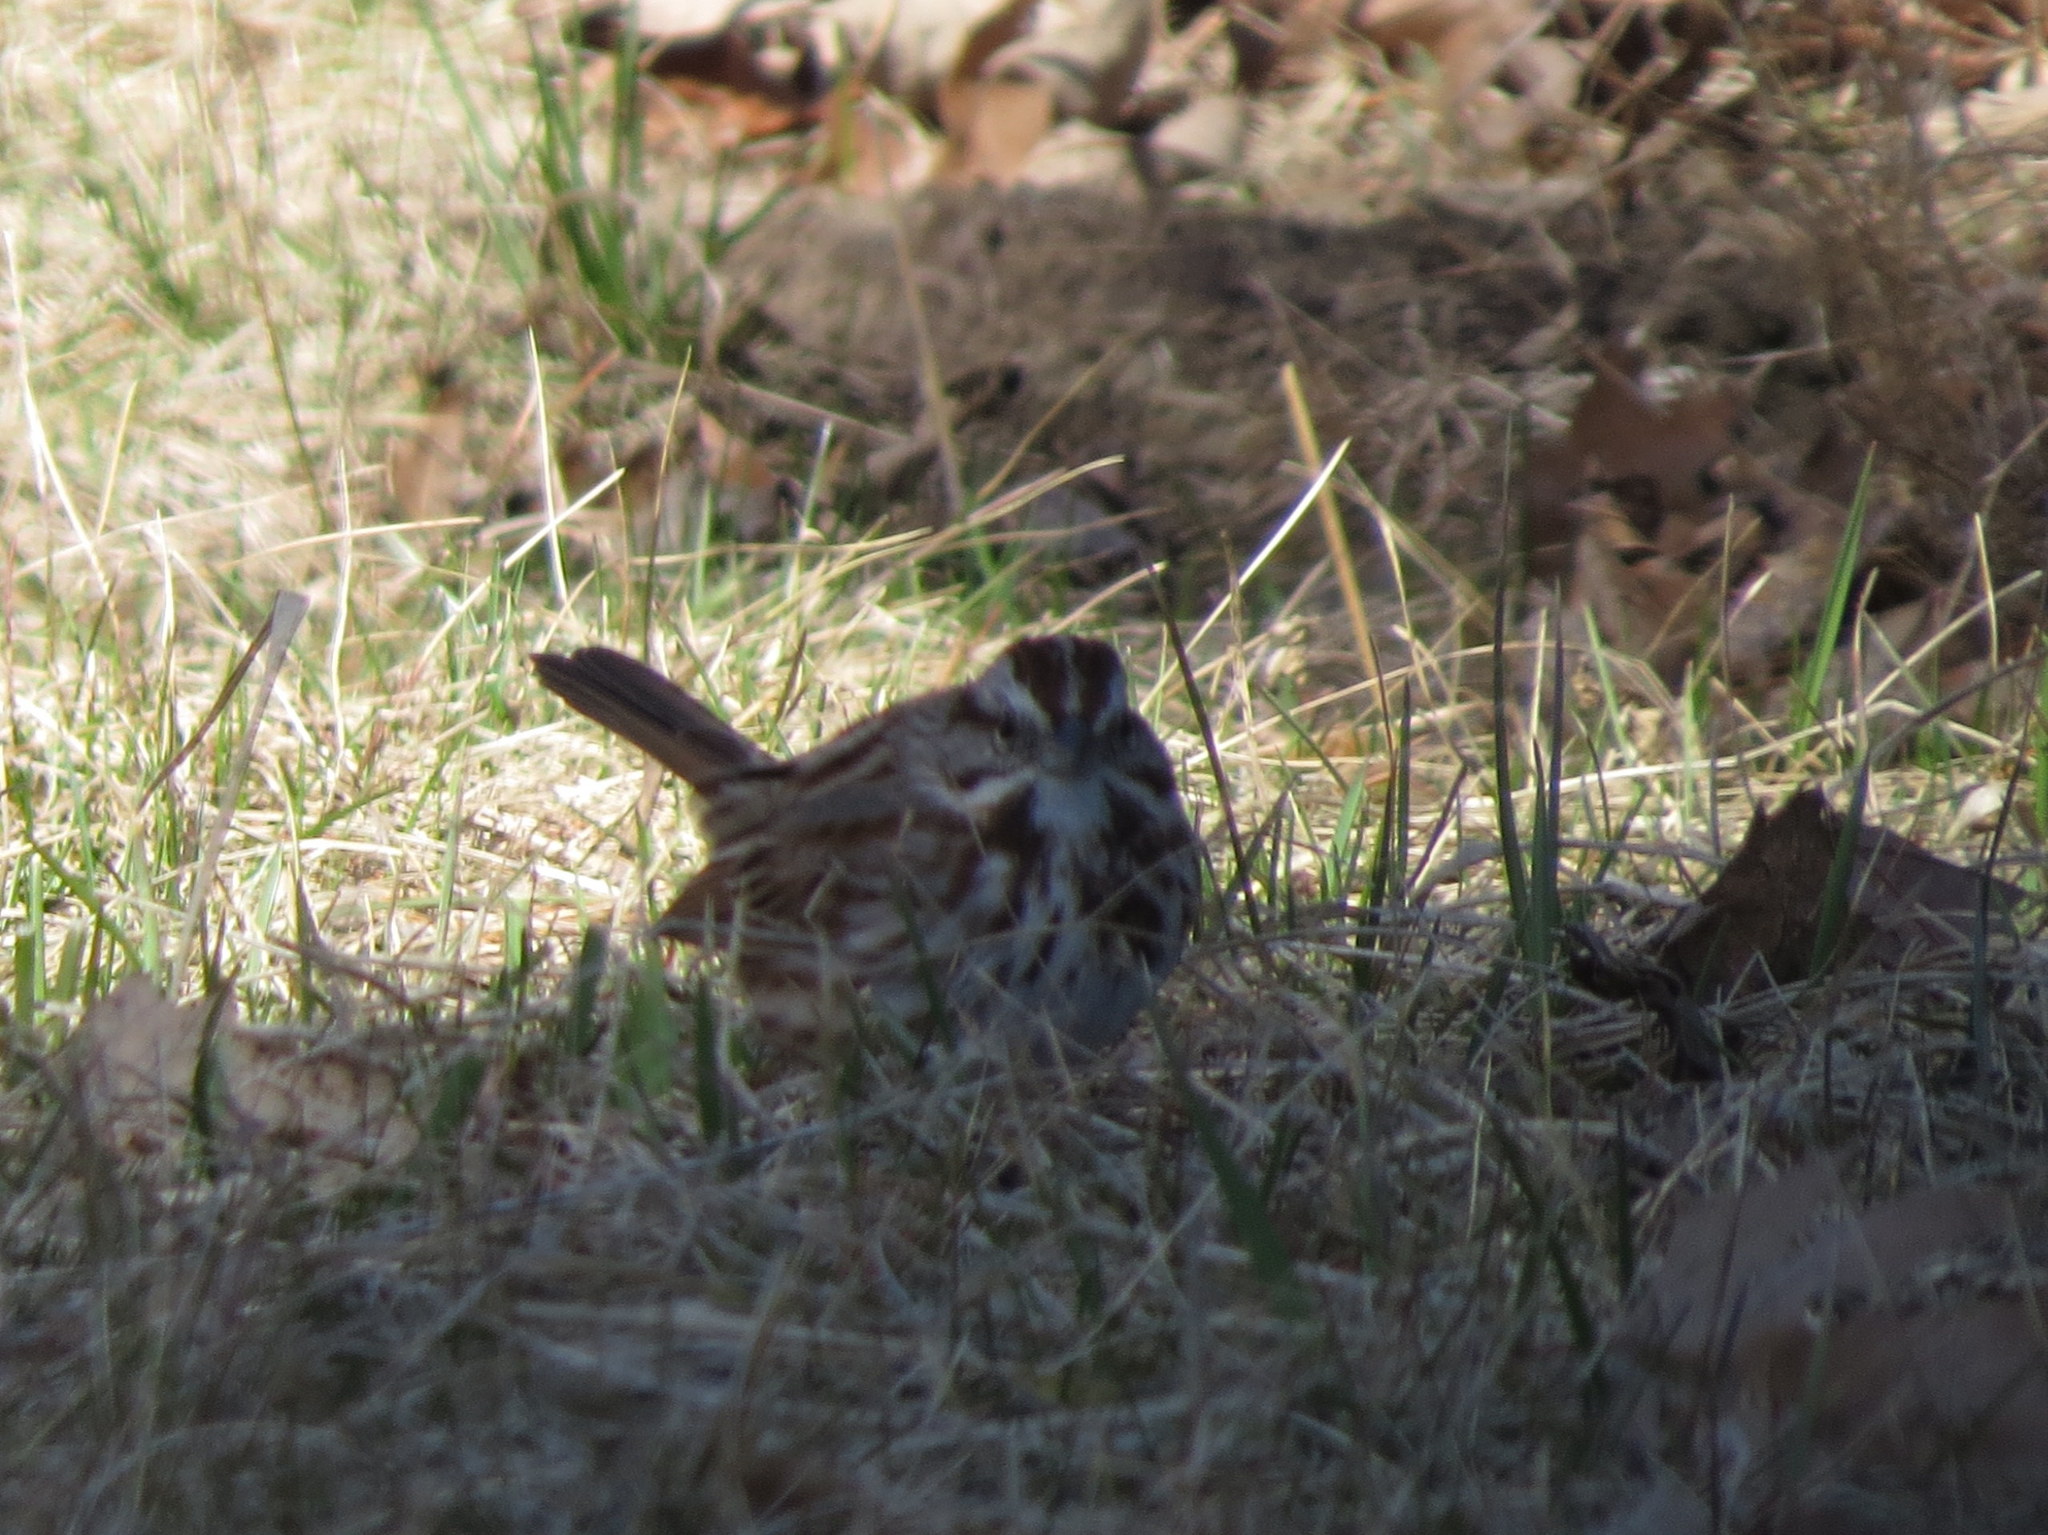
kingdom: Animalia
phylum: Chordata
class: Aves
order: Passeriformes
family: Passerellidae
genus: Melospiza
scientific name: Melospiza melodia
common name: Song sparrow
